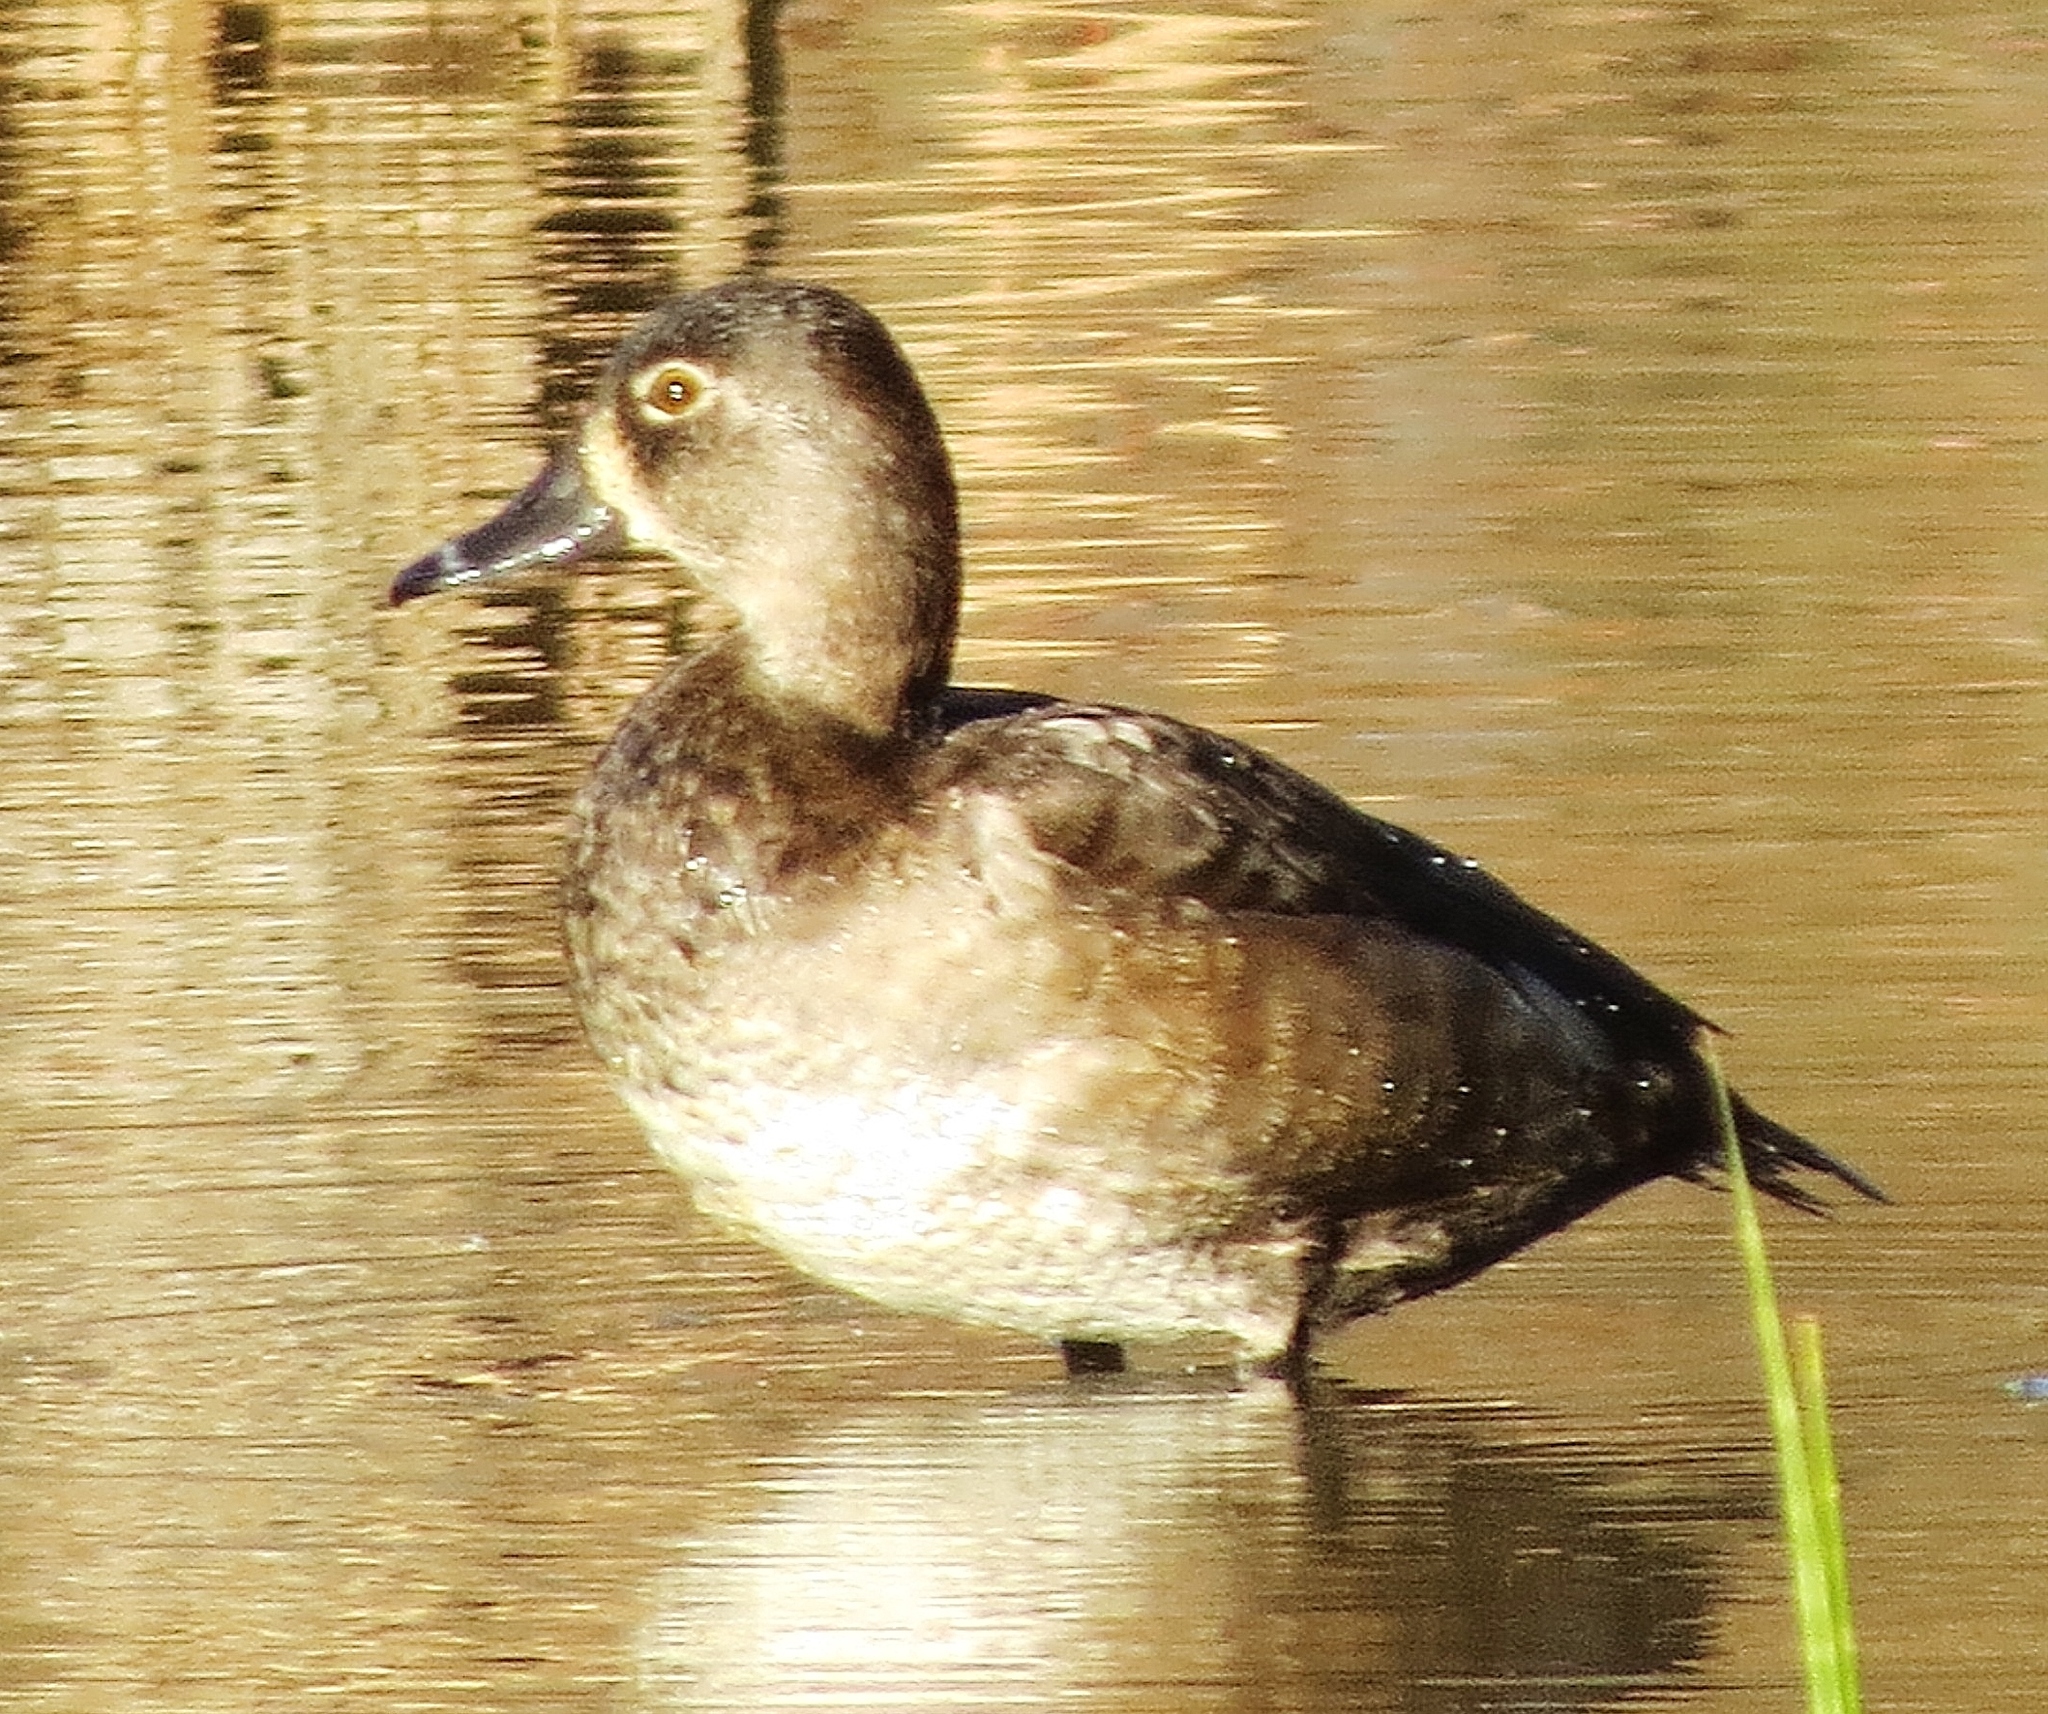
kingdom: Animalia
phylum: Chordata
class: Aves
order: Anseriformes
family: Anatidae
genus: Aythya
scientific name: Aythya collaris
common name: Ring-necked duck
